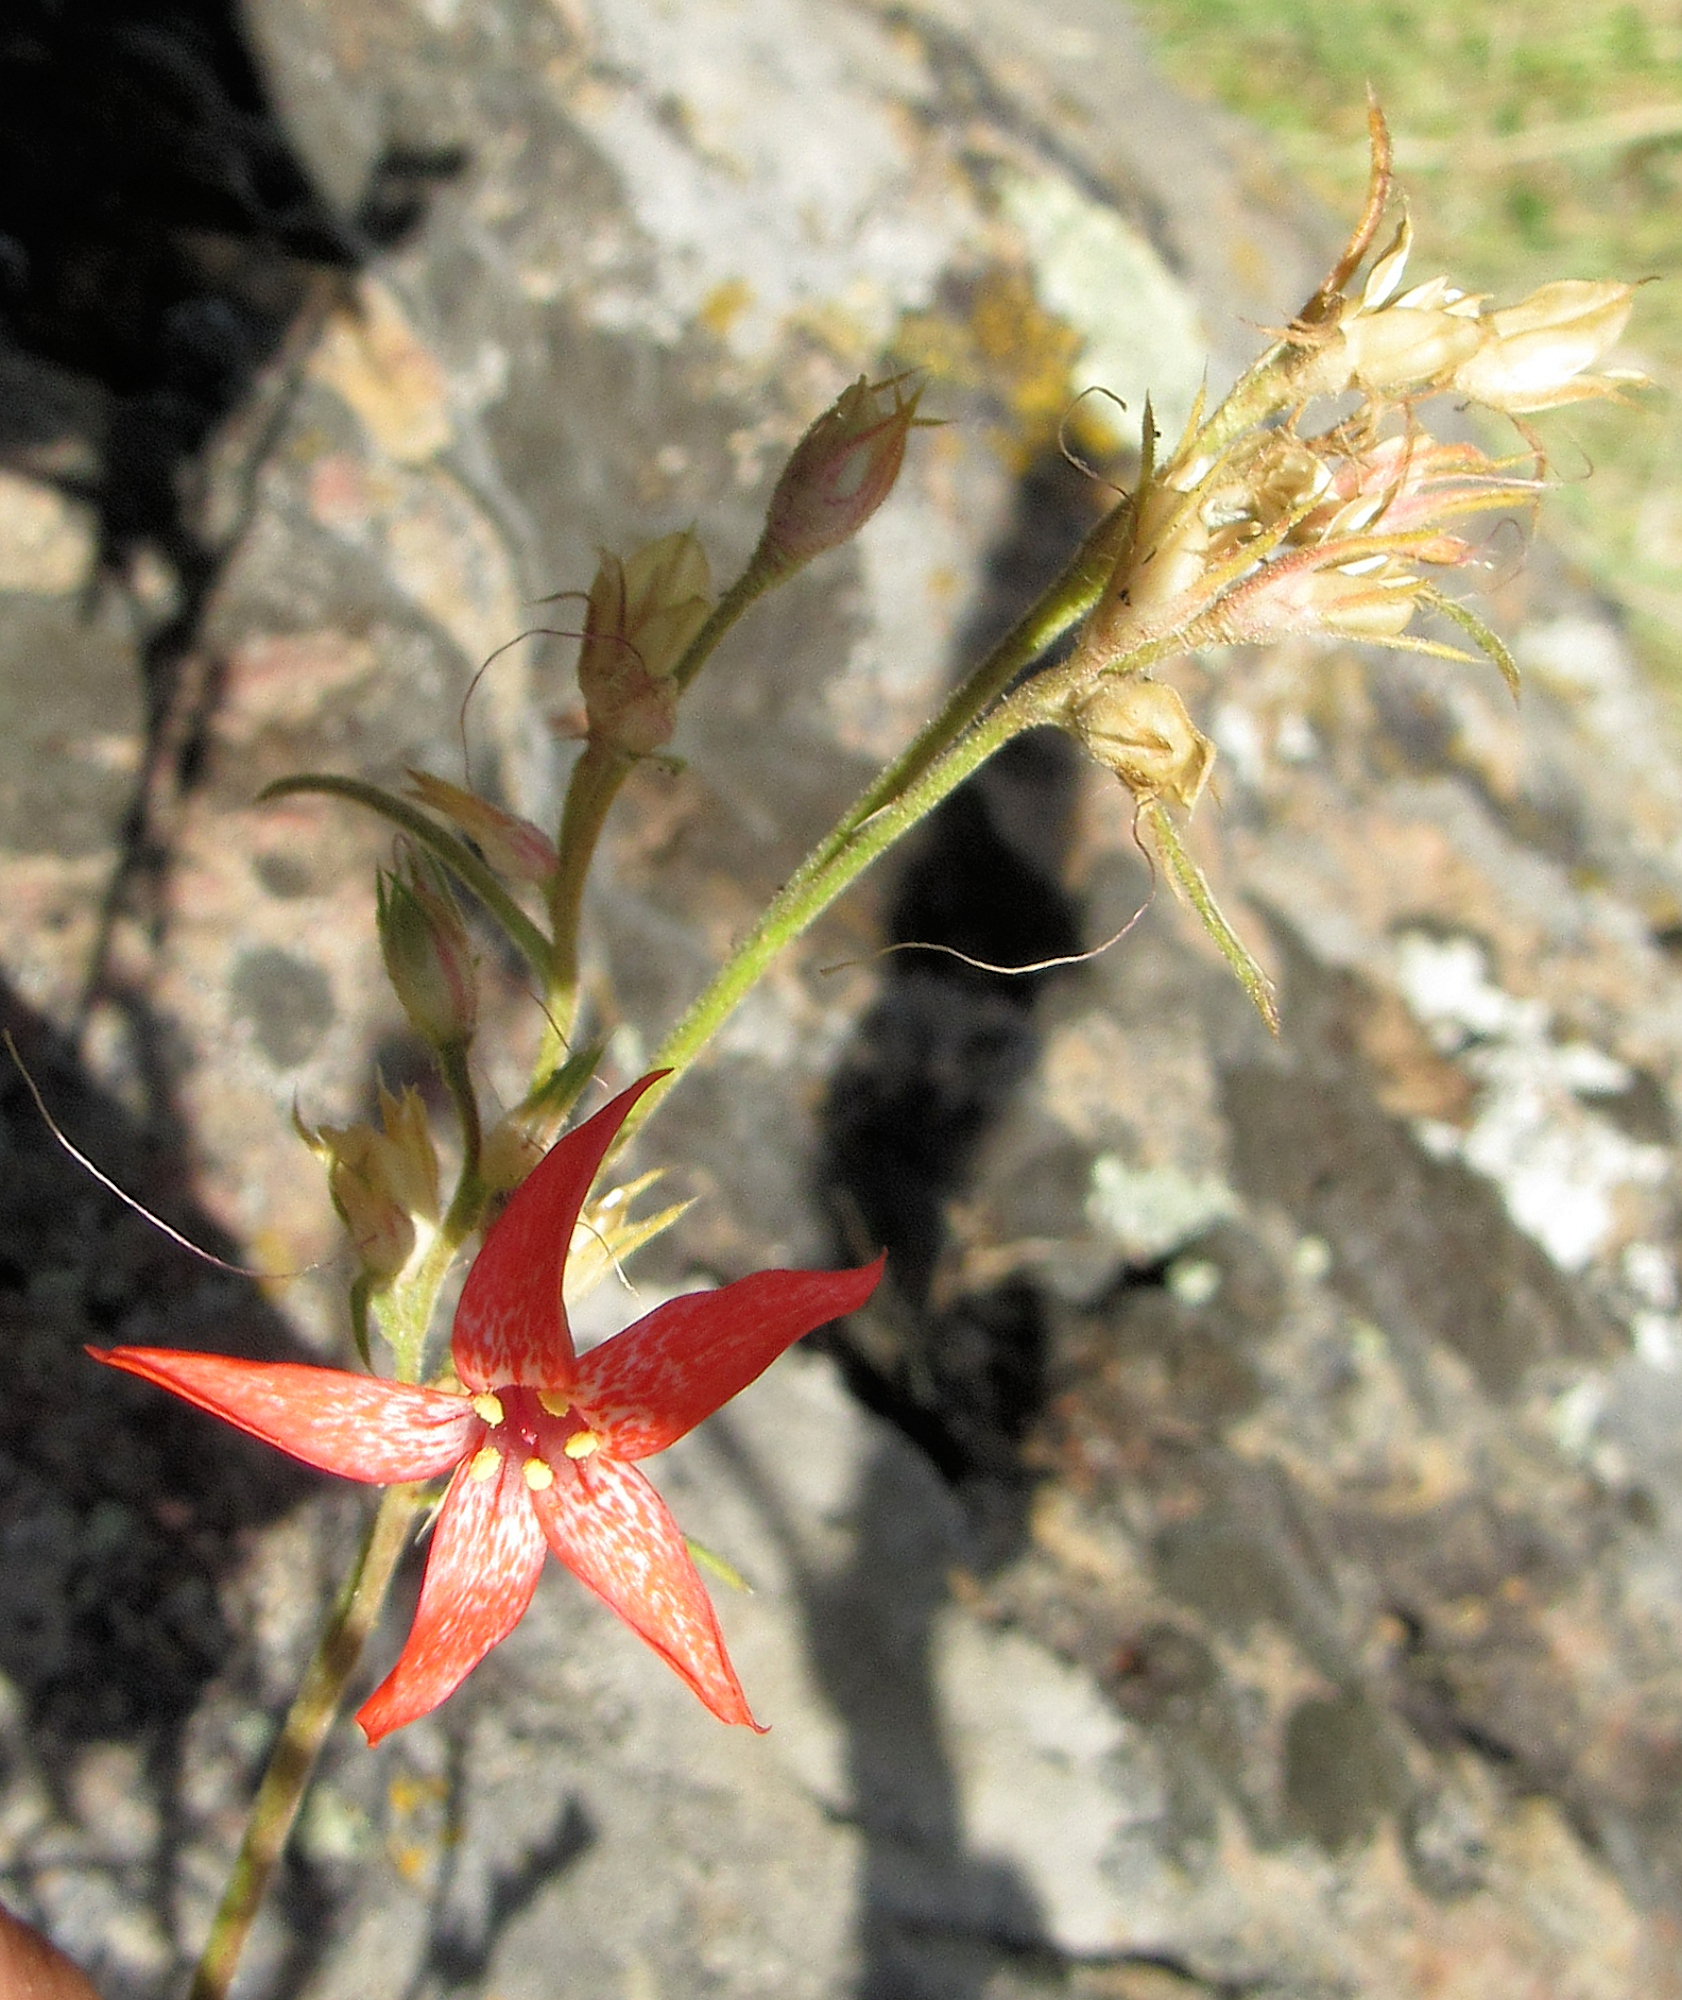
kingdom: Plantae
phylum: Tracheophyta
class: Magnoliopsida
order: Ericales
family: Polemoniaceae
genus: Ipomopsis
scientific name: Ipomopsis aggregata
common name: Scarlet gilia
